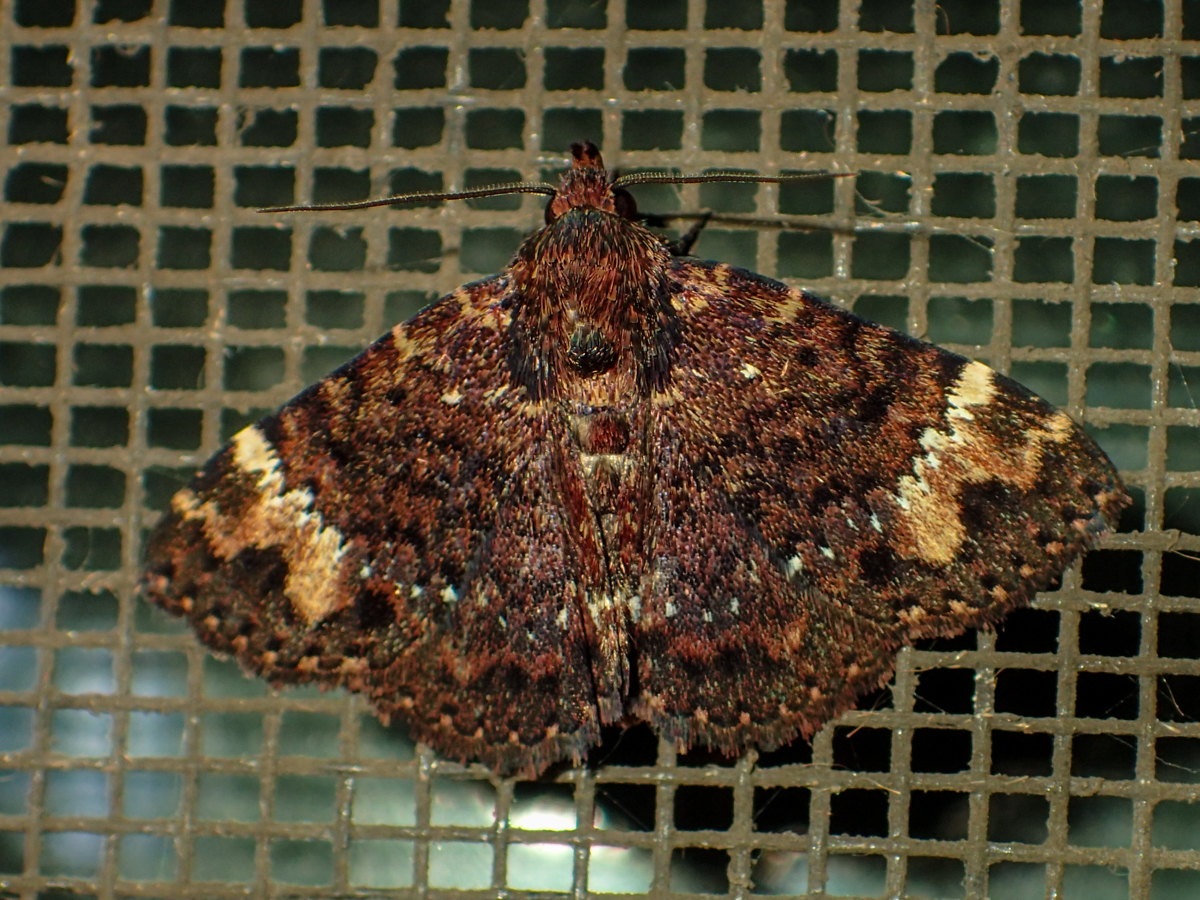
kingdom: Animalia
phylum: Arthropoda
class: Insecta
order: Lepidoptera
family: Erebidae
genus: Diomea
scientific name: Diomea tricuspida
